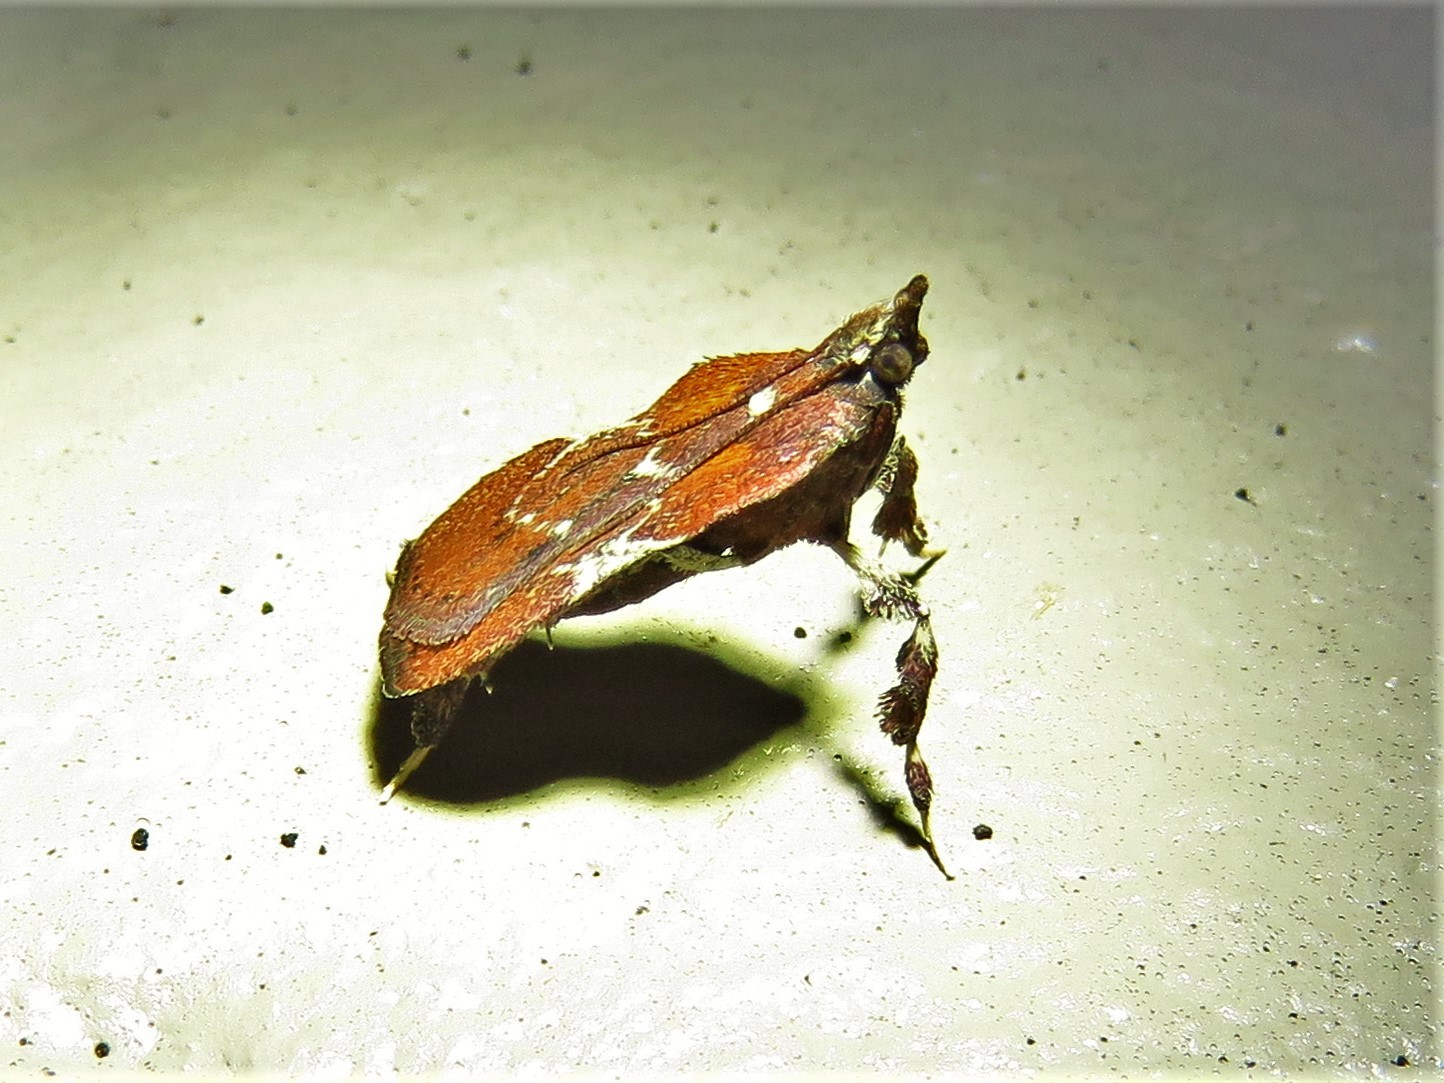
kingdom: Animalia
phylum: Arthropoda
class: Insecta
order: Lepidoptera
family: Pyralidae
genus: Galasa
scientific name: Galasa nigrinodis
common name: Boxwood leaftier moth
